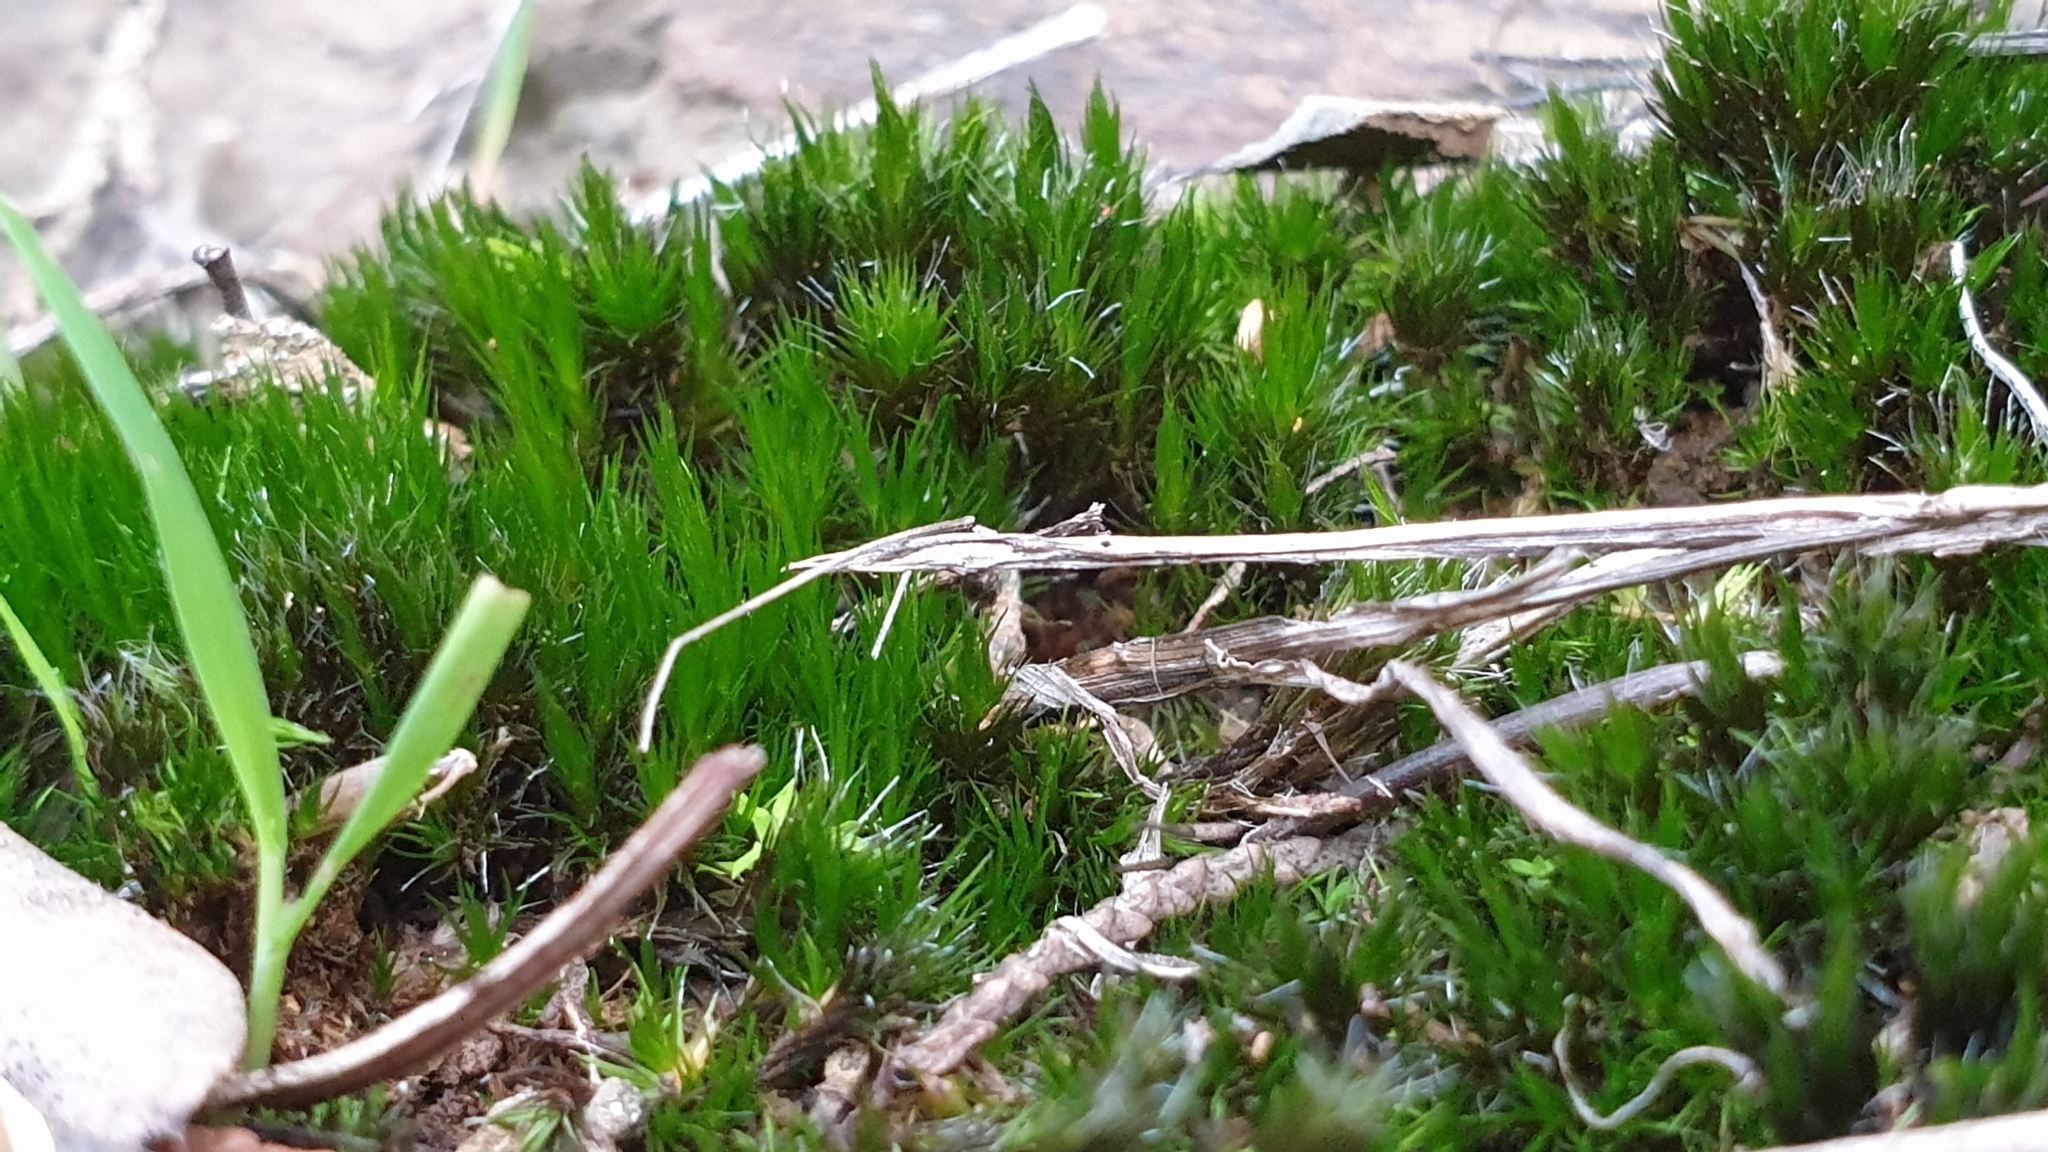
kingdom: Plantae
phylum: Bryophyta
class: Bryopsida
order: Dicranales
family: Leucobryaceae
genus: Campylopus
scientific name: Campylopus introflexus
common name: Heath star moss
